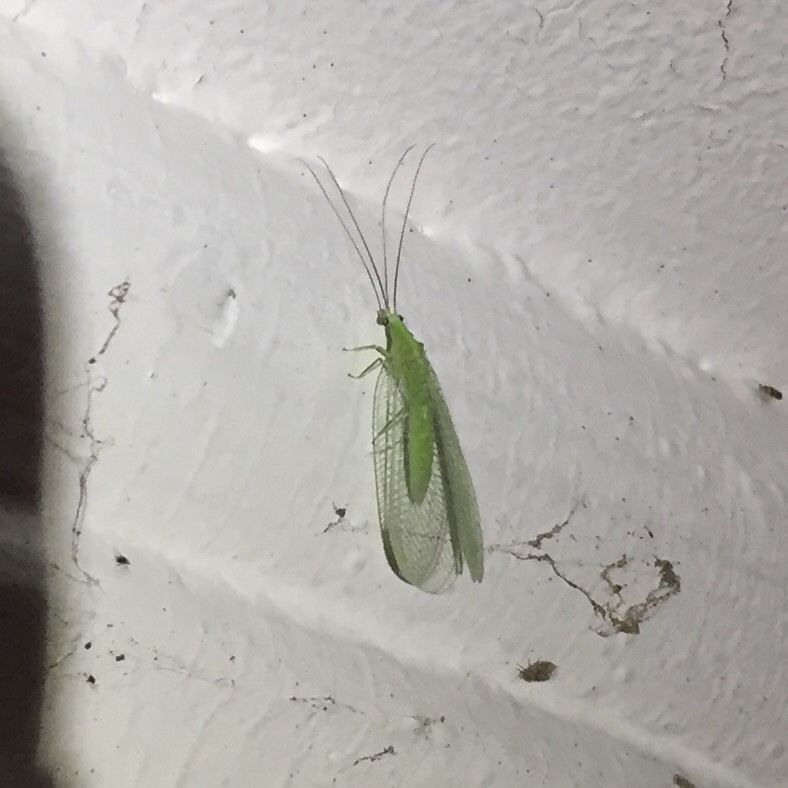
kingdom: Animalia
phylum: Arthropoda
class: Insecta
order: Neuroptera
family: Chrysopidae
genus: Chrysopa
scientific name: Chrysopa nigricornis
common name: Black-horned green lacewing
